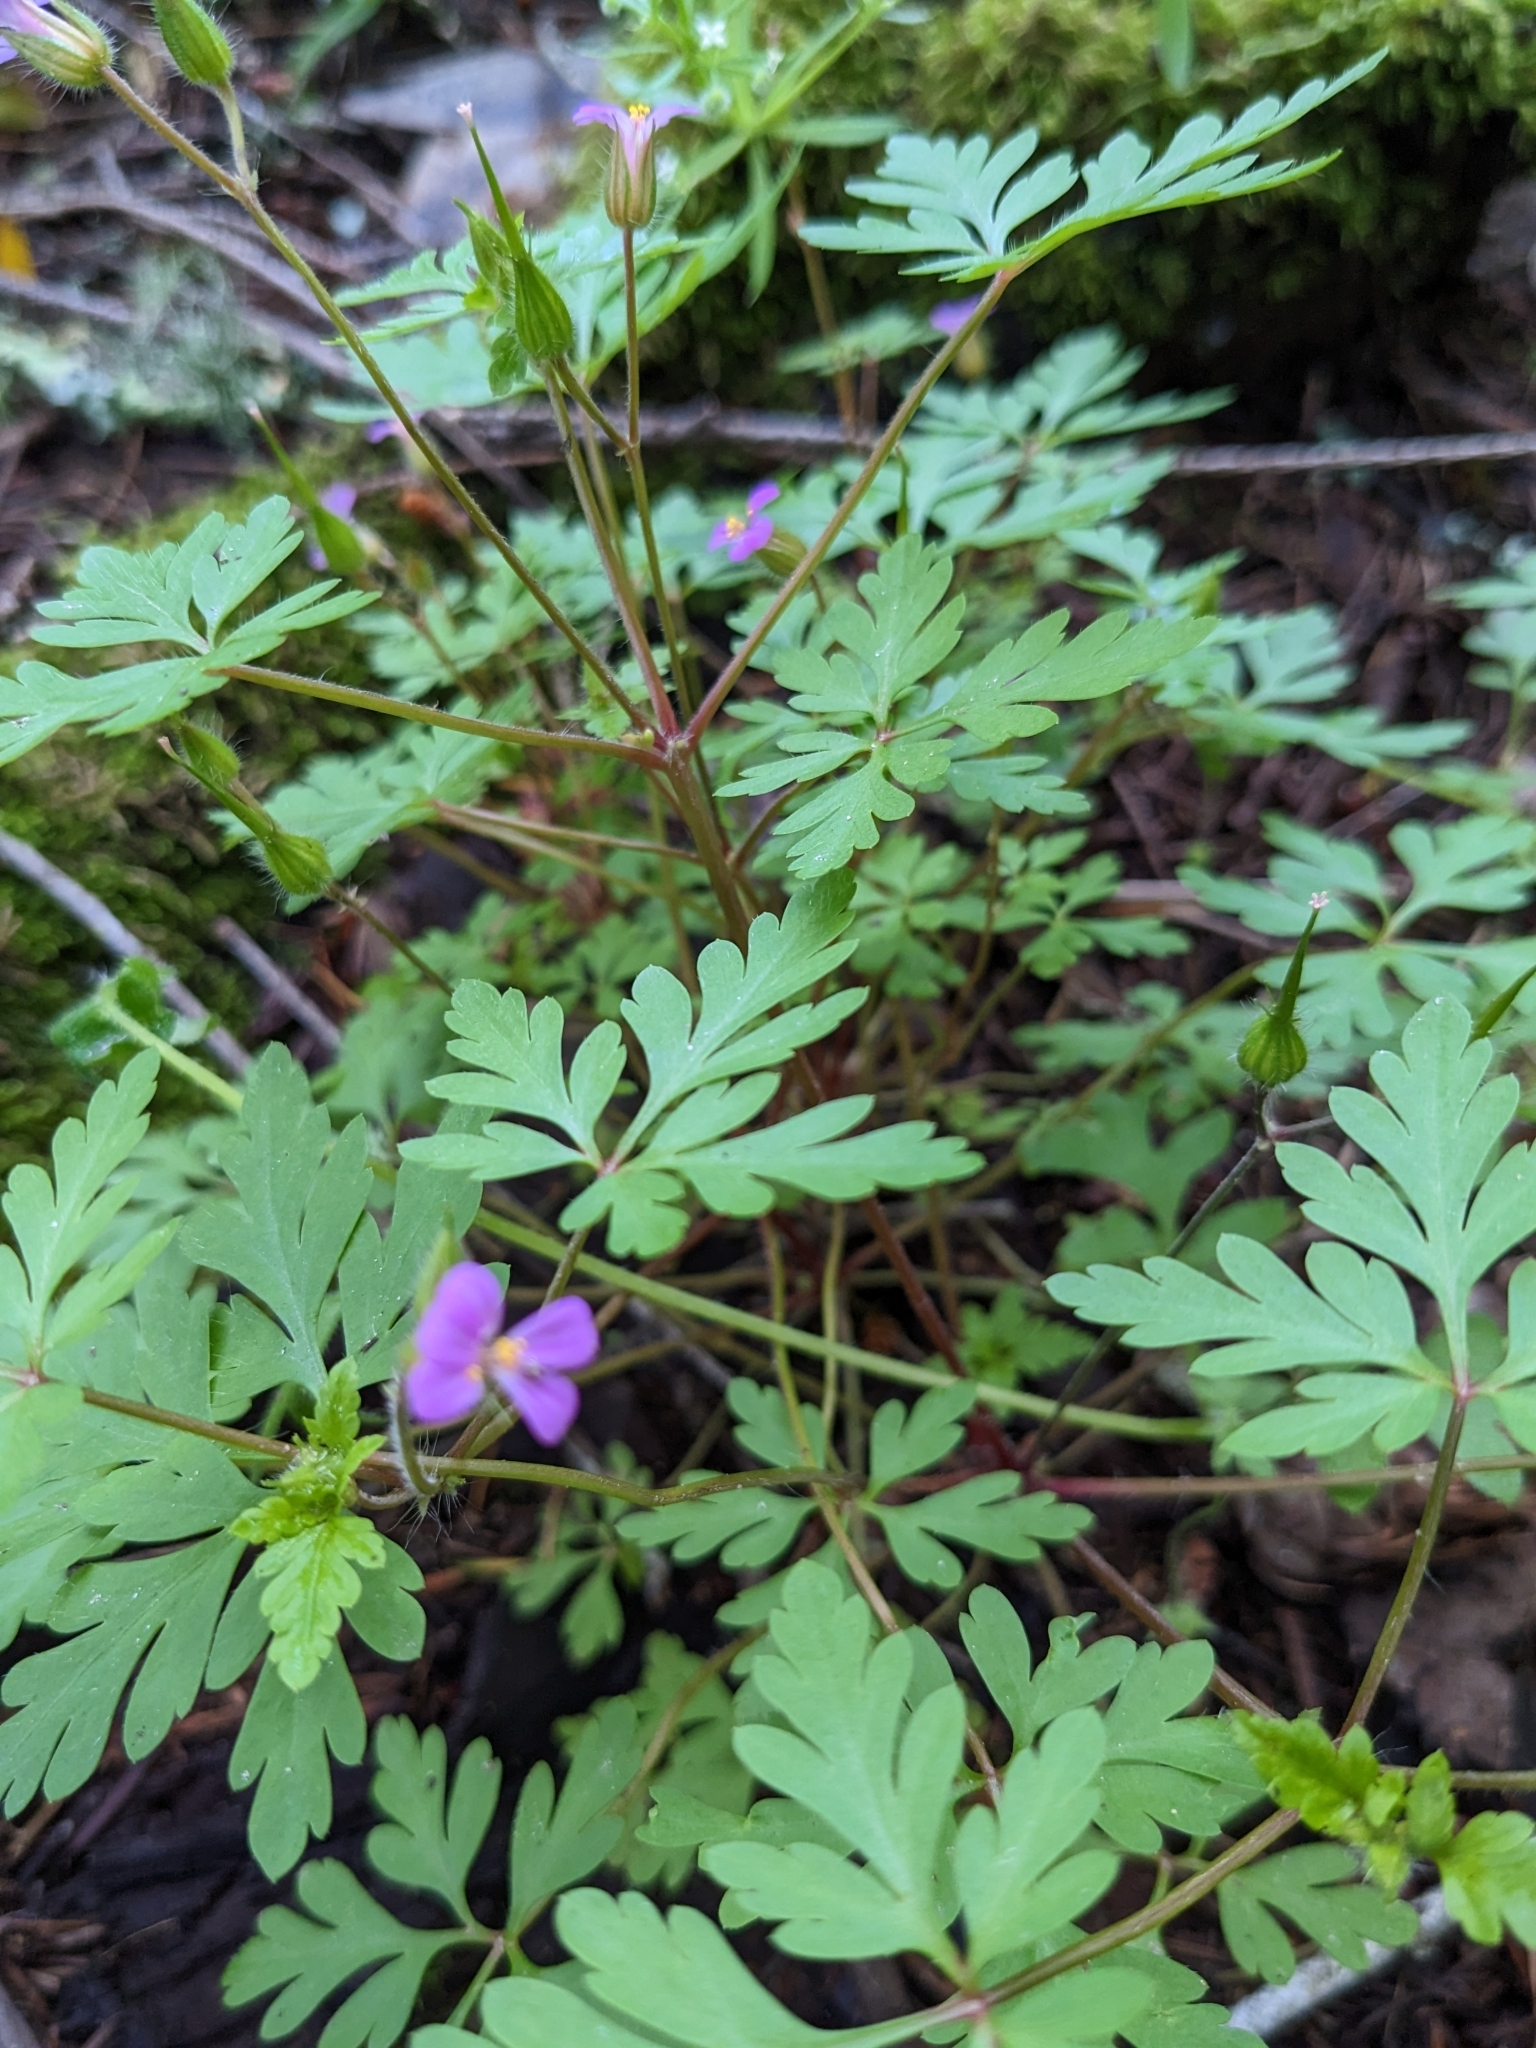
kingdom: Plantae
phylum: Tracheophyta
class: Magnoliopsida
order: Geraniales
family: Geraniaceae
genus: Geranium
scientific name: Geranium purpureum
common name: Little-robin
